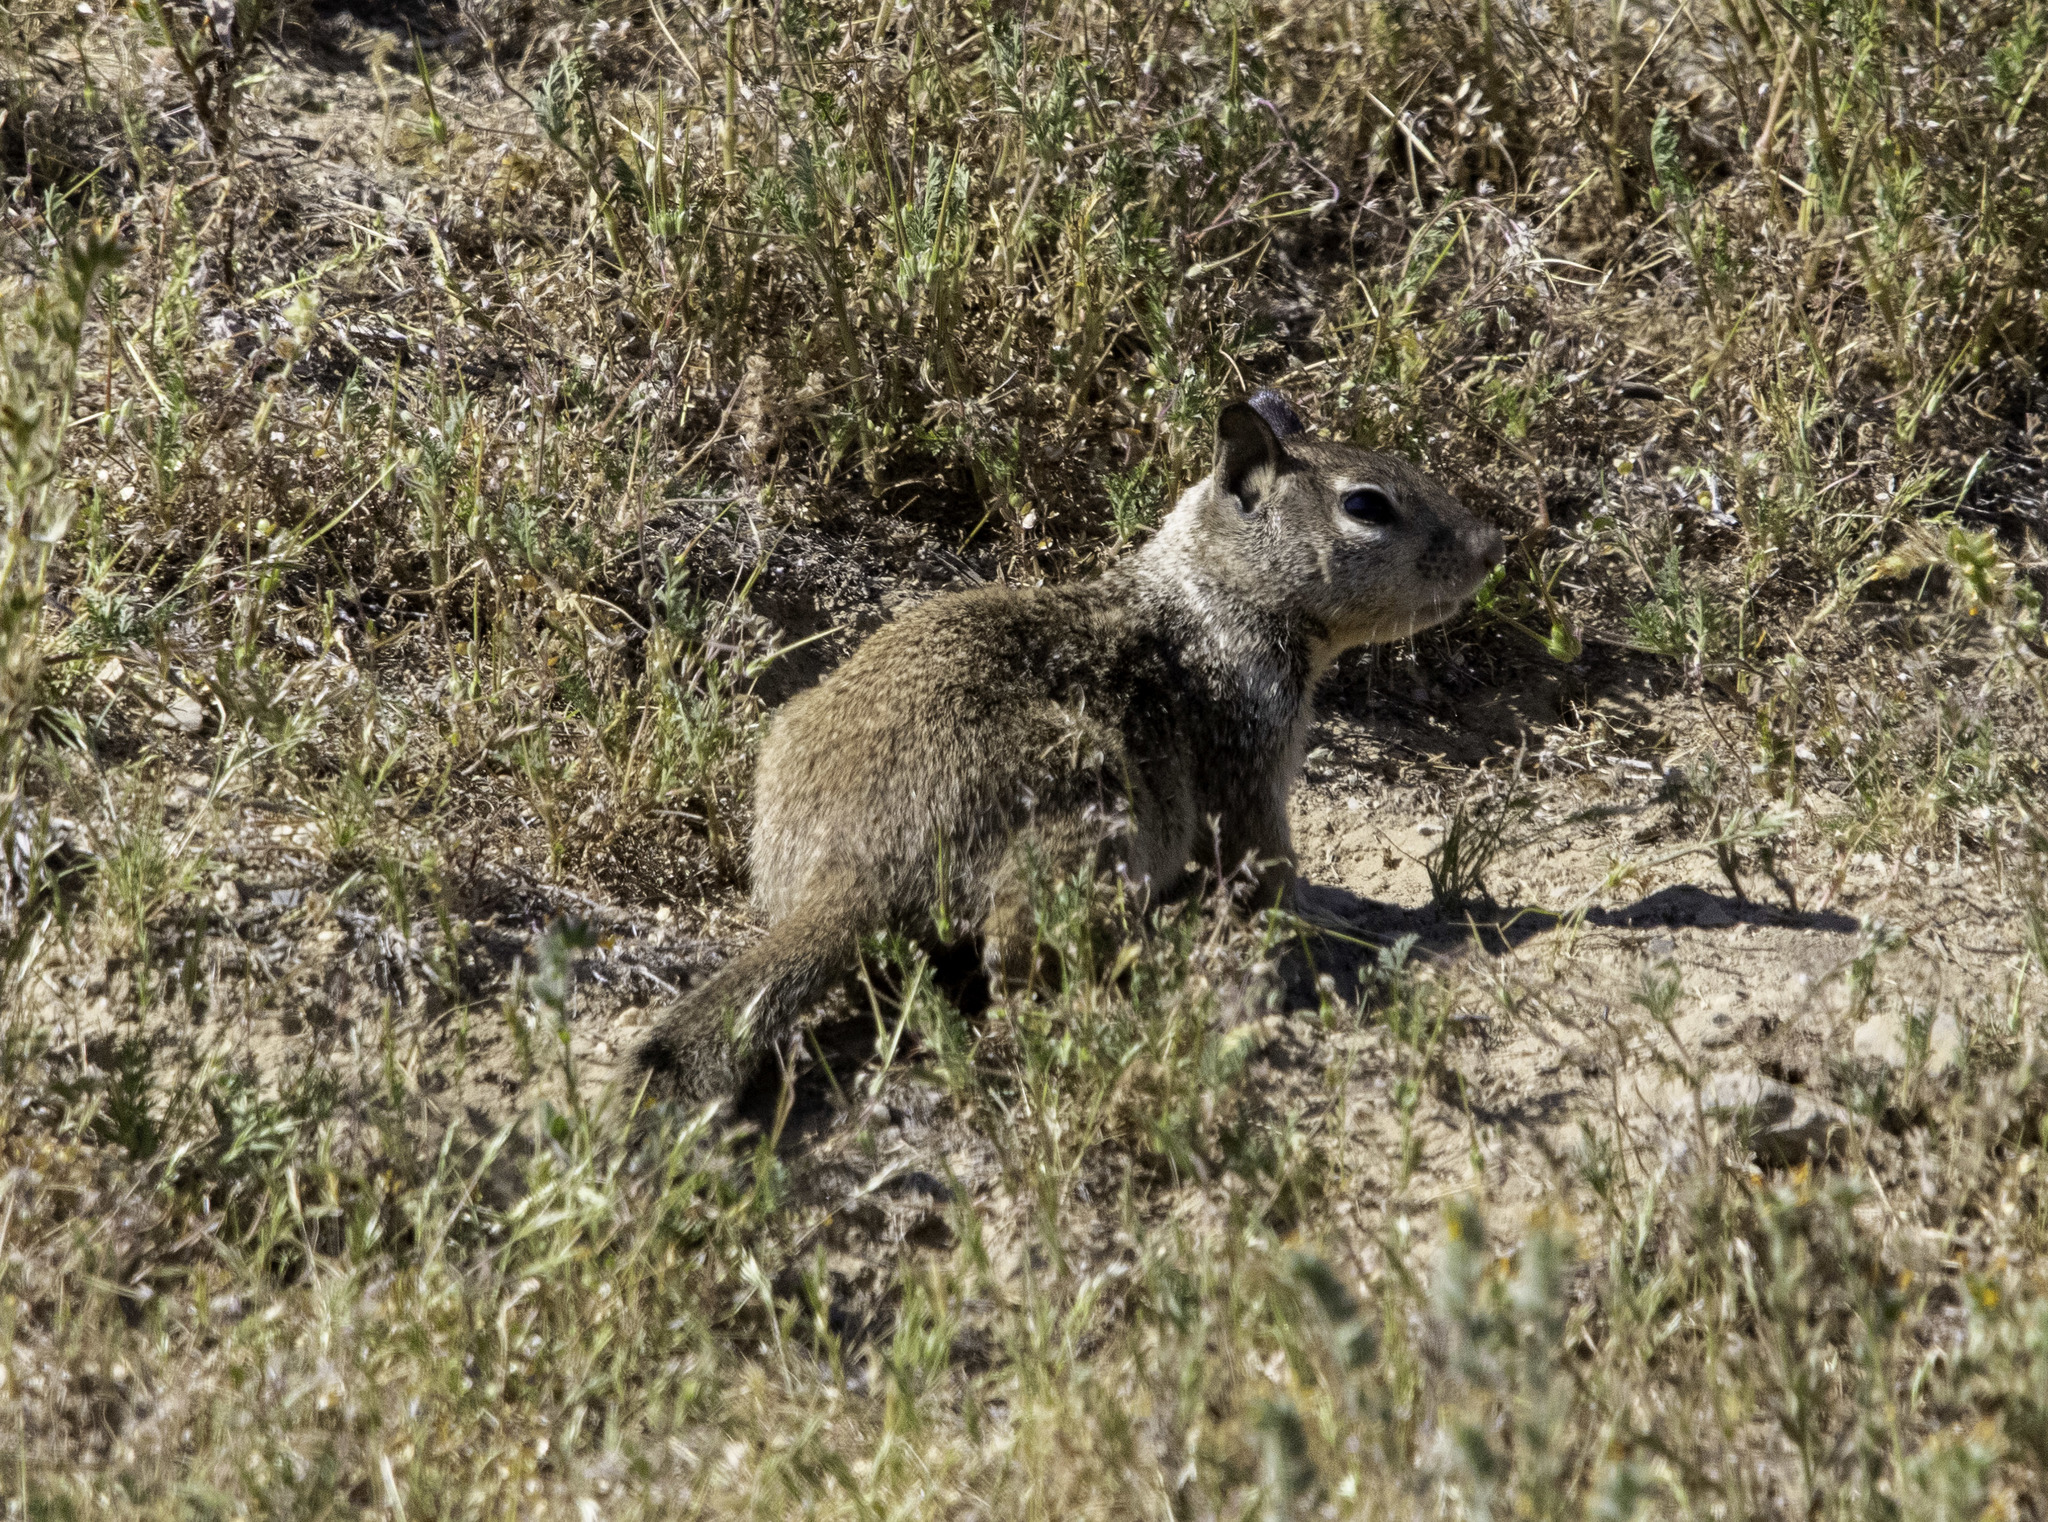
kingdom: Animalia
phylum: Chordata
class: Mammalia
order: Rodentia
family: Sciuridae
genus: Otospermophilus
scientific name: Otospermophilus beecheyi
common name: California ground squirrel
